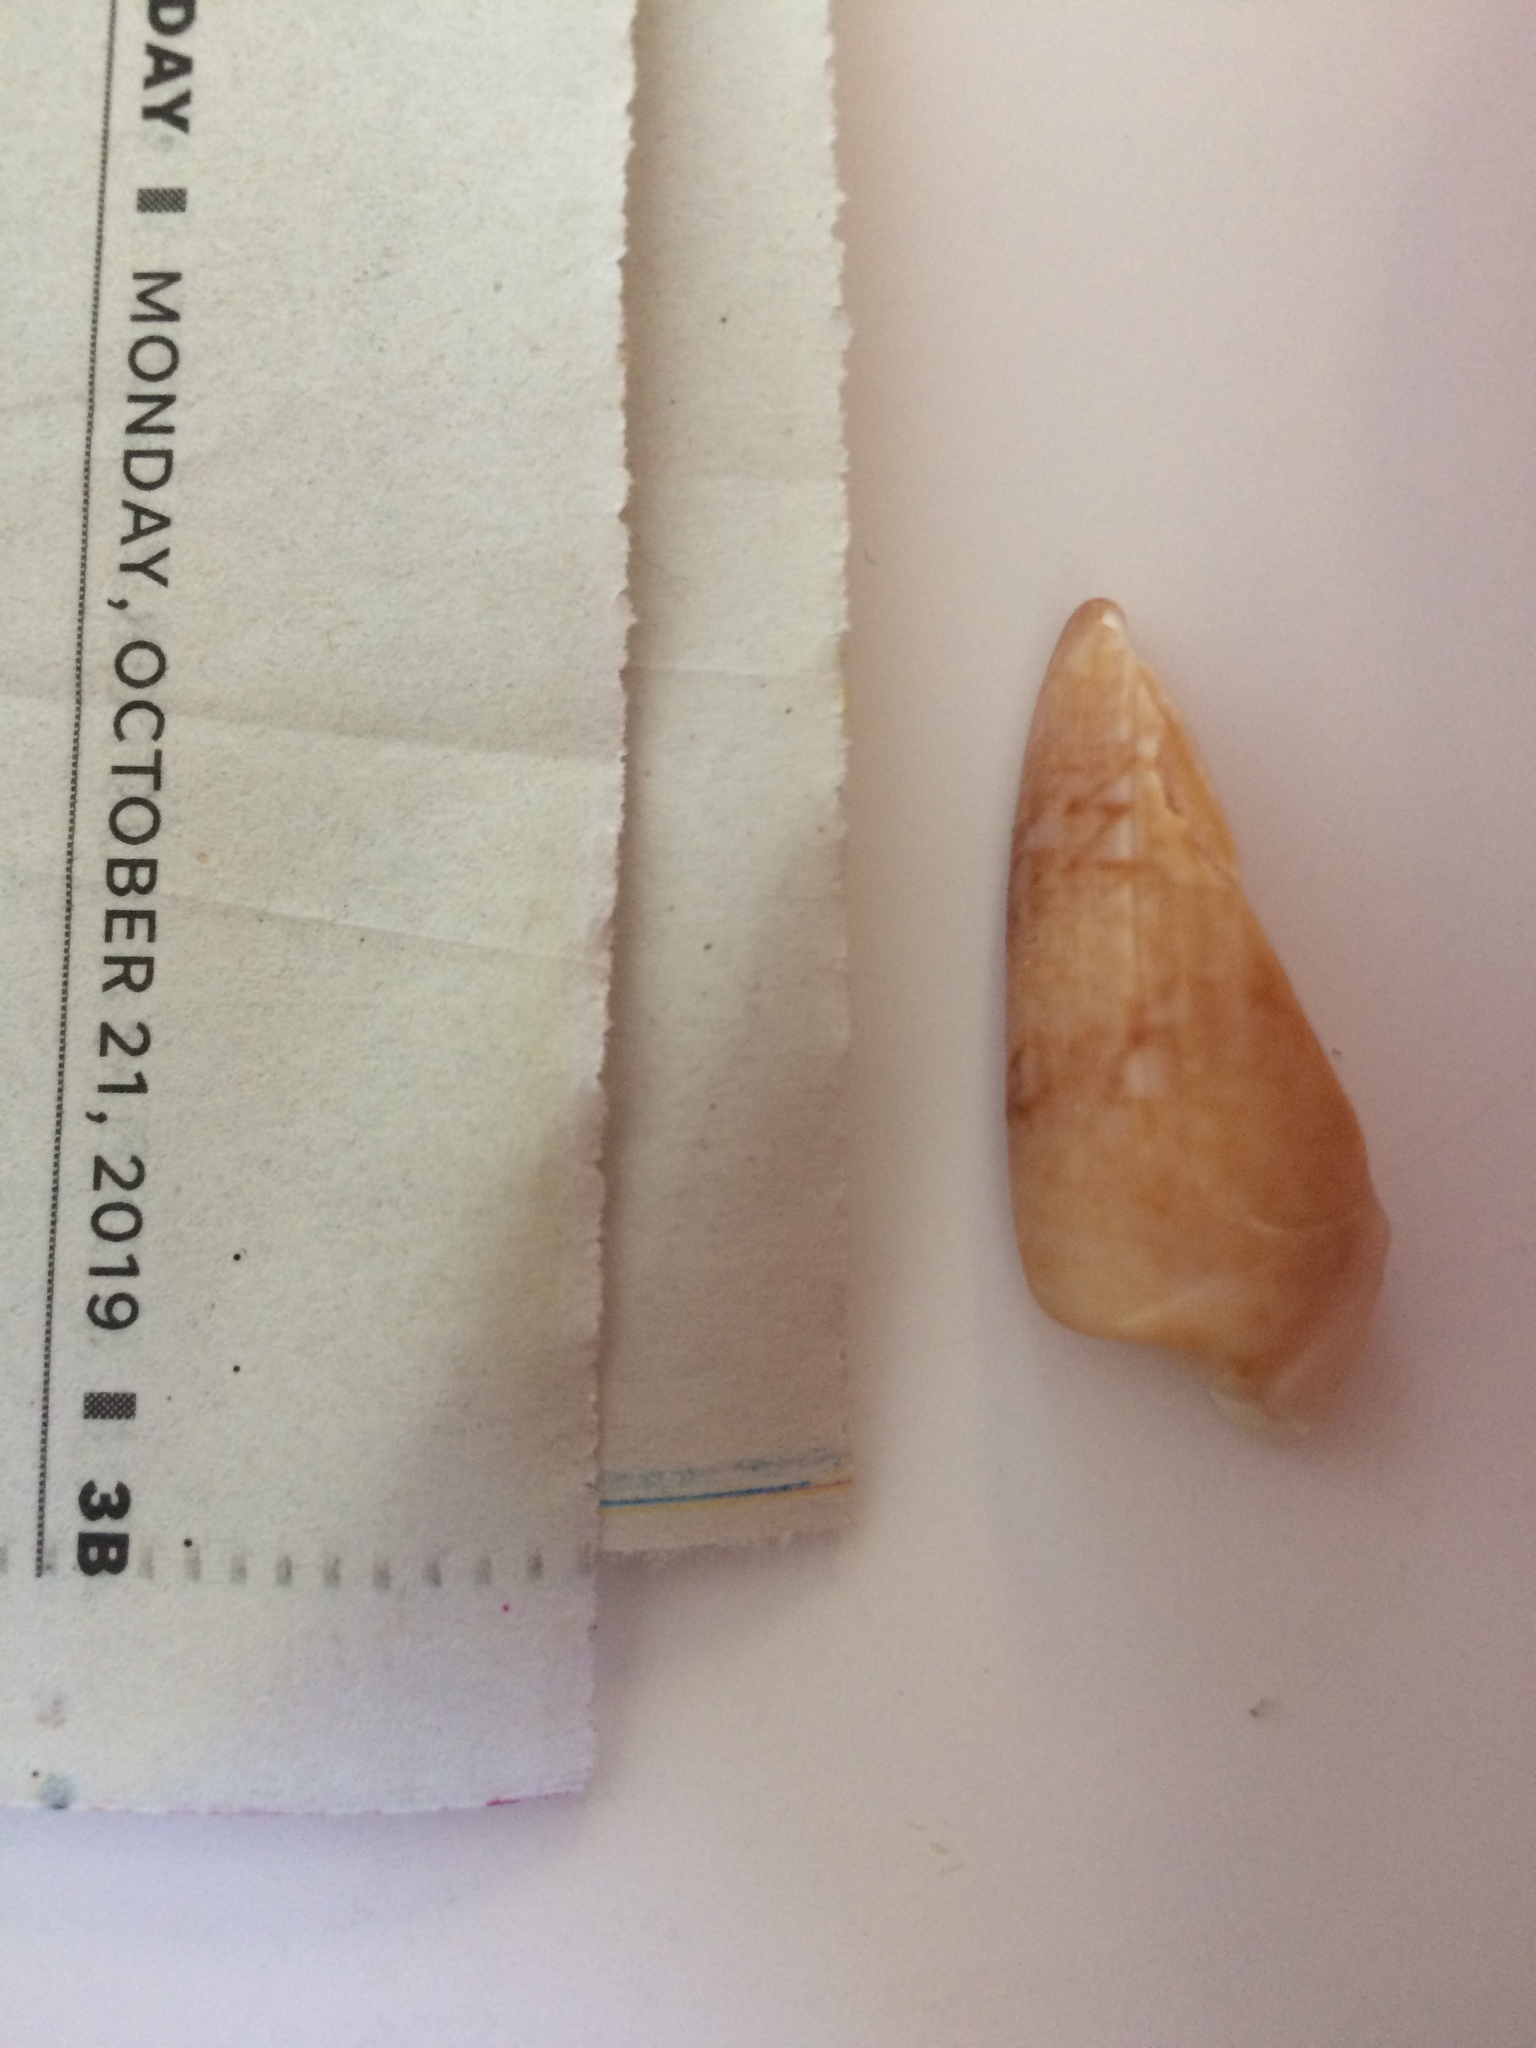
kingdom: Animalia
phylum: Mollusca
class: Gastropoda
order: Neogastropoda
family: Olividae
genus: Oliva
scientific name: Oliva sayana
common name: Lettered olive
